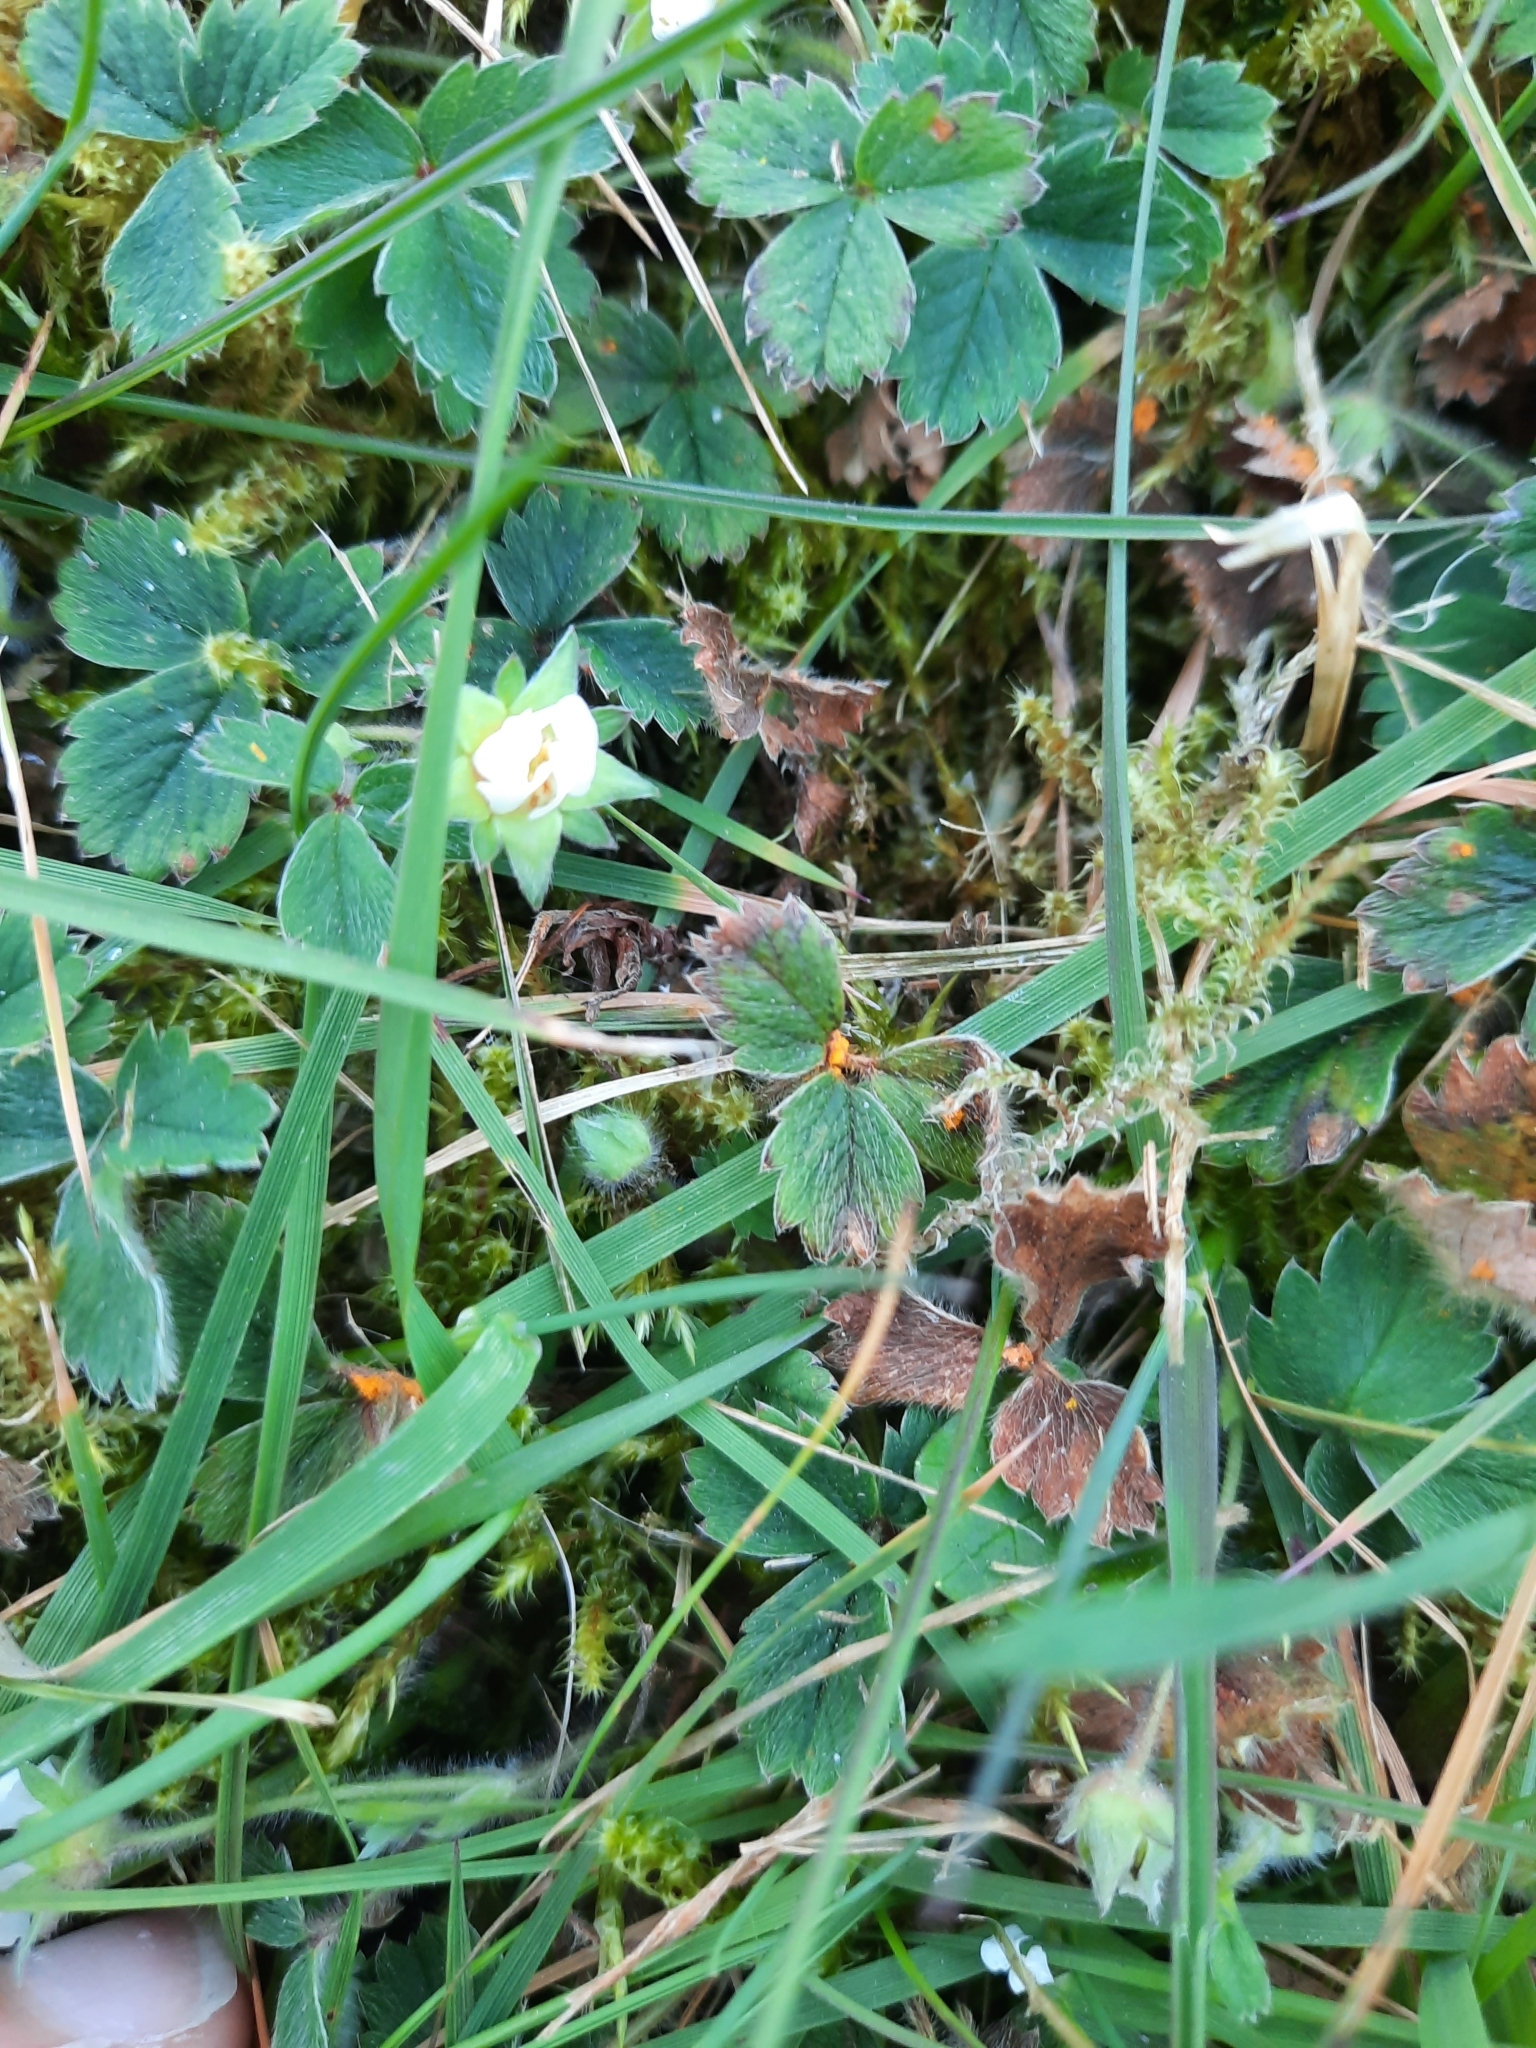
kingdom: Fungi
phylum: Basidiomycota
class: Pucciniomycetes
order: Pucciniales
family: Phragmidiaceae
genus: Phragmidium
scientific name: Phragmidium fragariae
